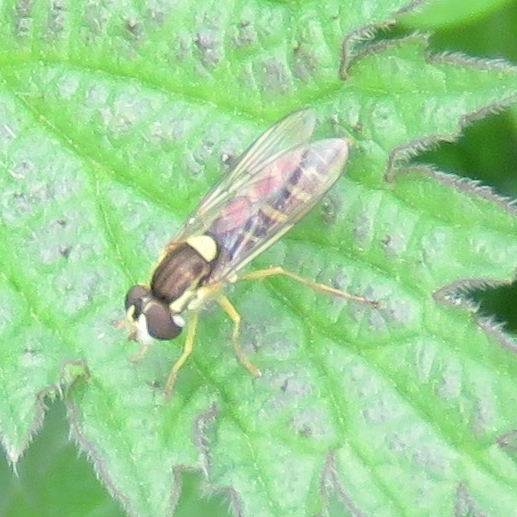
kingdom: Animalia
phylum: Arthropoda
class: Insecta
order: Diptera
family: Syrphidae
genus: Sphaerophoria
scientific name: Sphaerophoria
